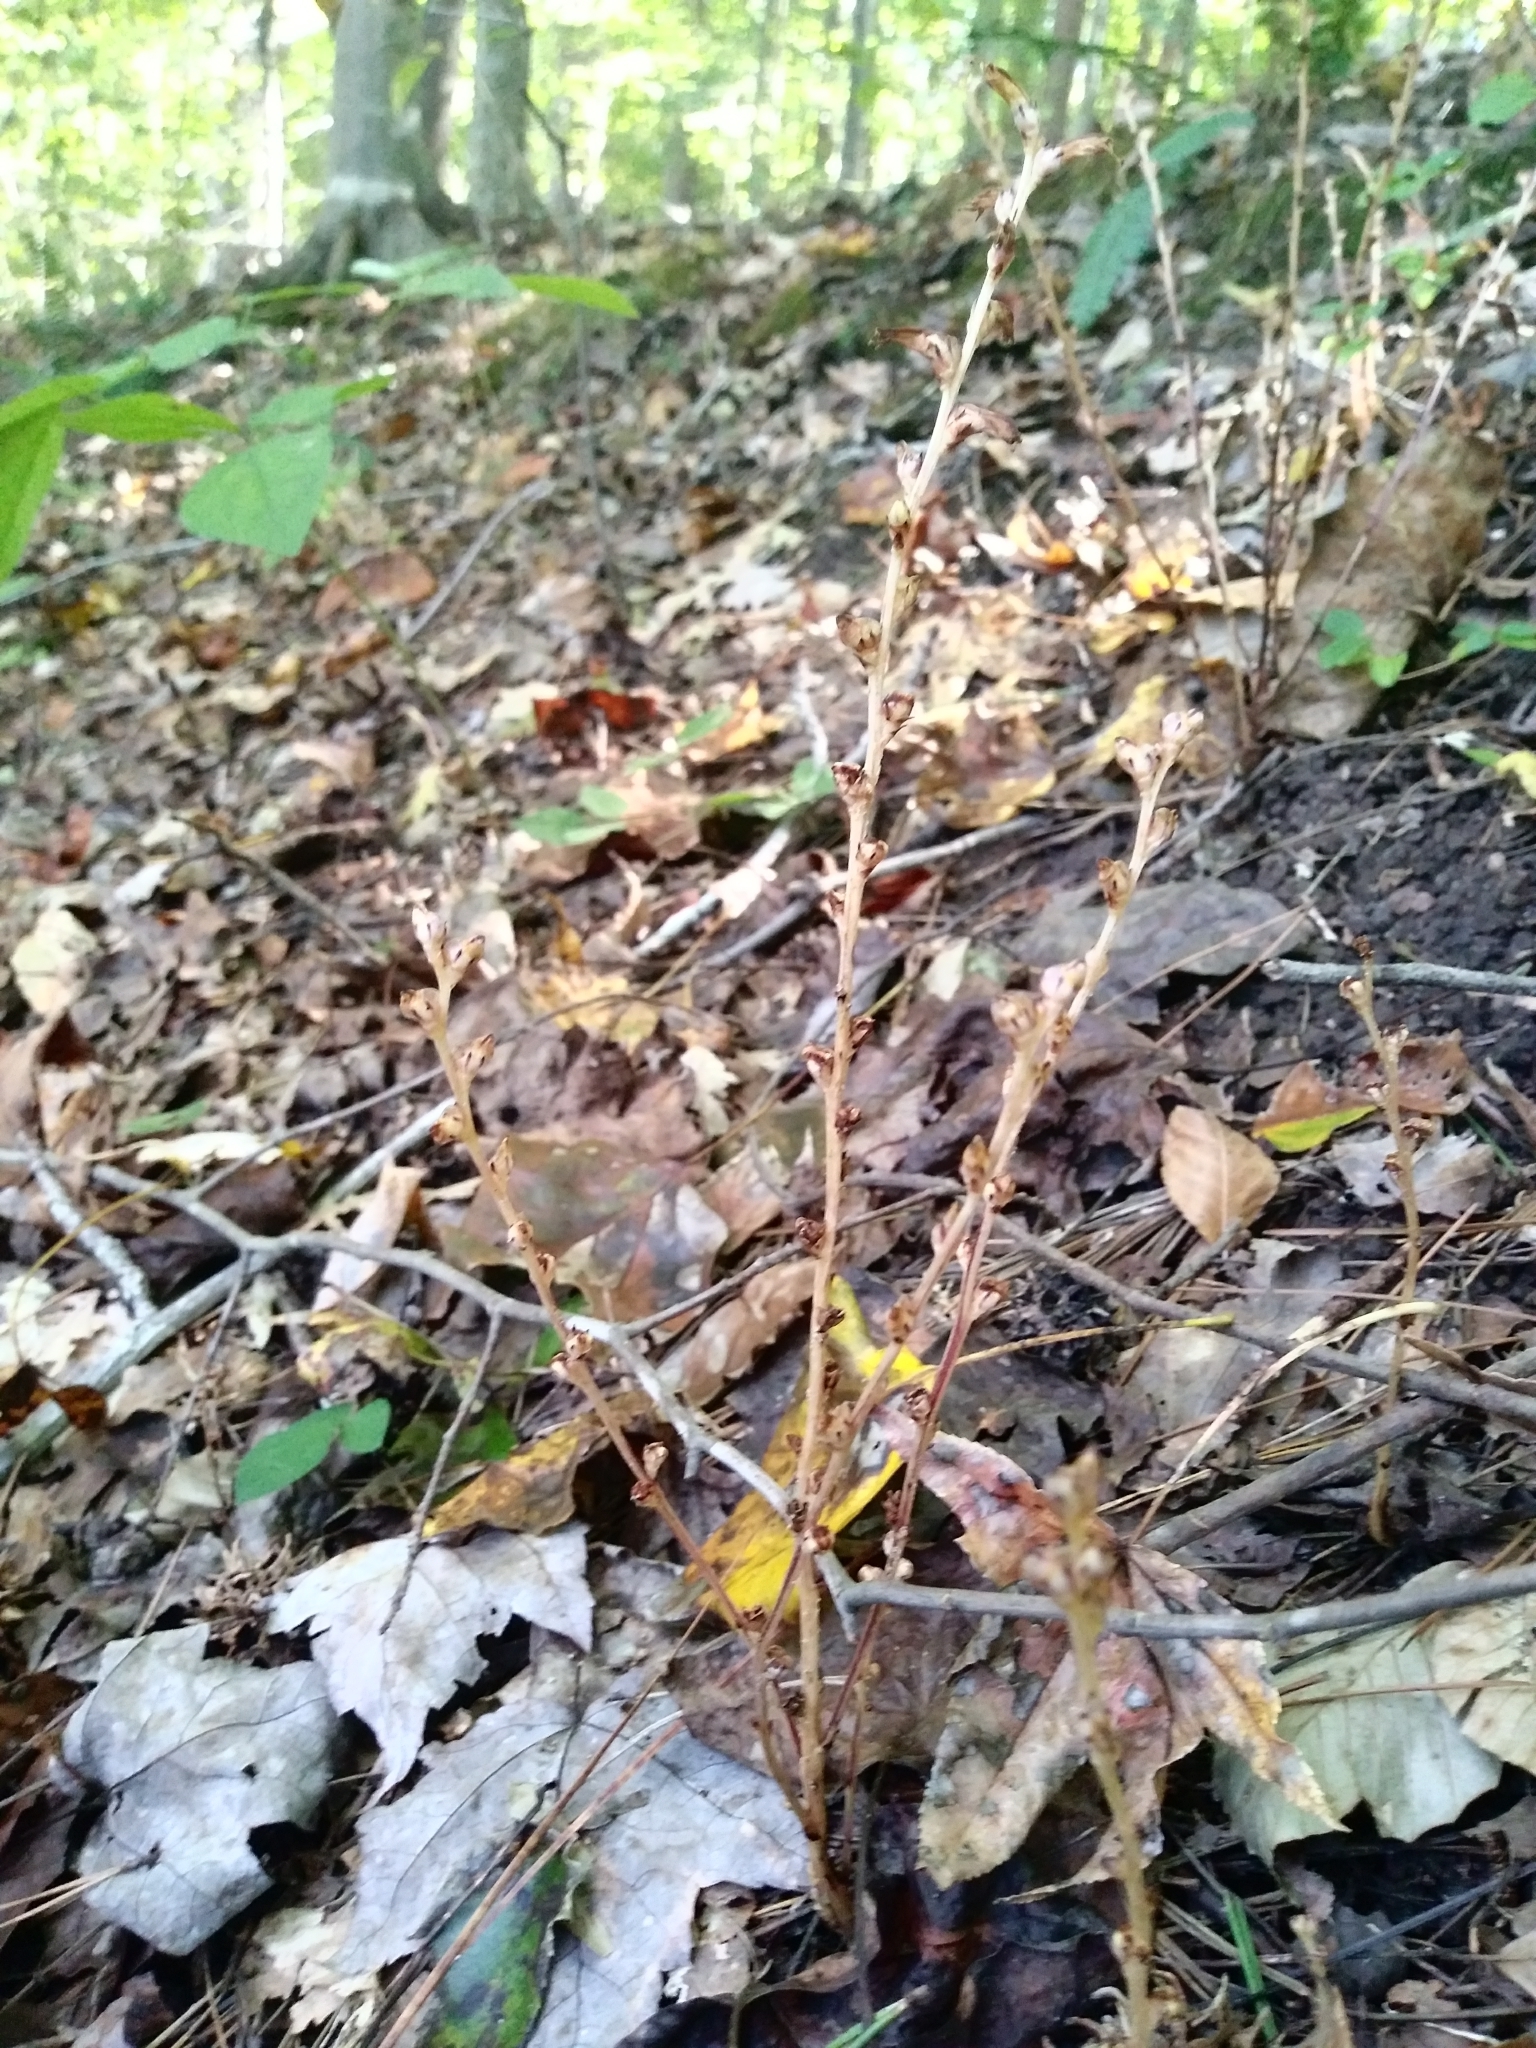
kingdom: Plantae
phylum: Tracheophyta
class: Magnoliopsida
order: Lamiales
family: Orobanchaceae
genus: Epifagus
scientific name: Epifagus virginiana
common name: Beechdrops
